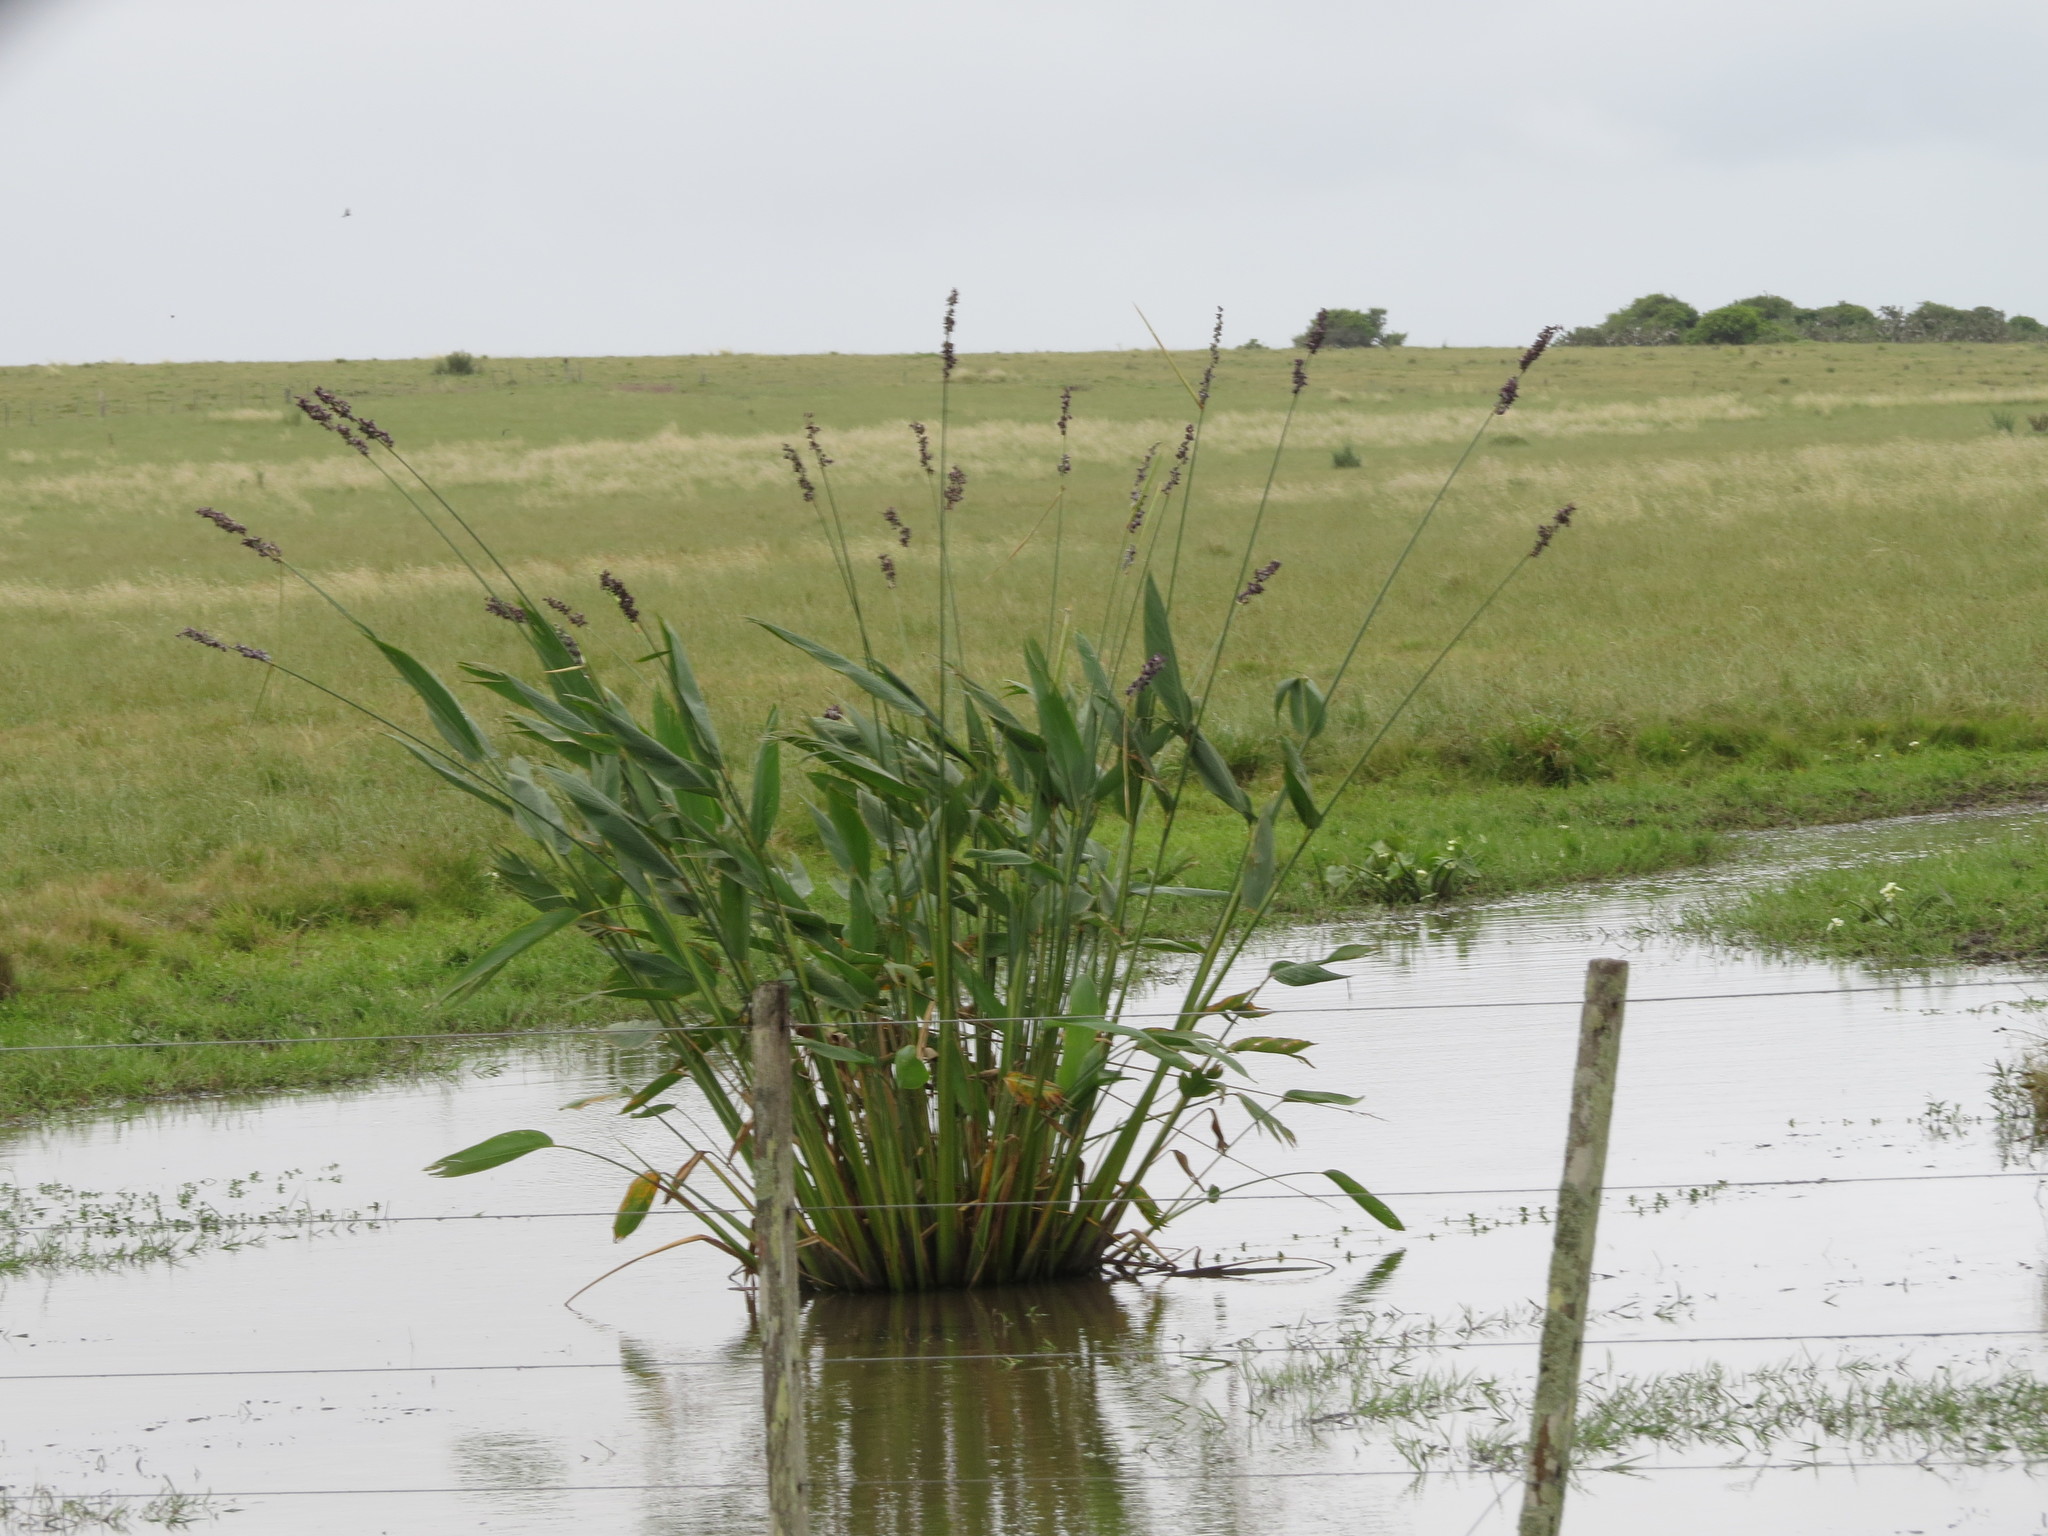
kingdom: Plantae
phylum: Tracheophyta
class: Liliopsida
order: Zingiberales
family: Marantaceae
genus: Thalia
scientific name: Thalia multiflora
